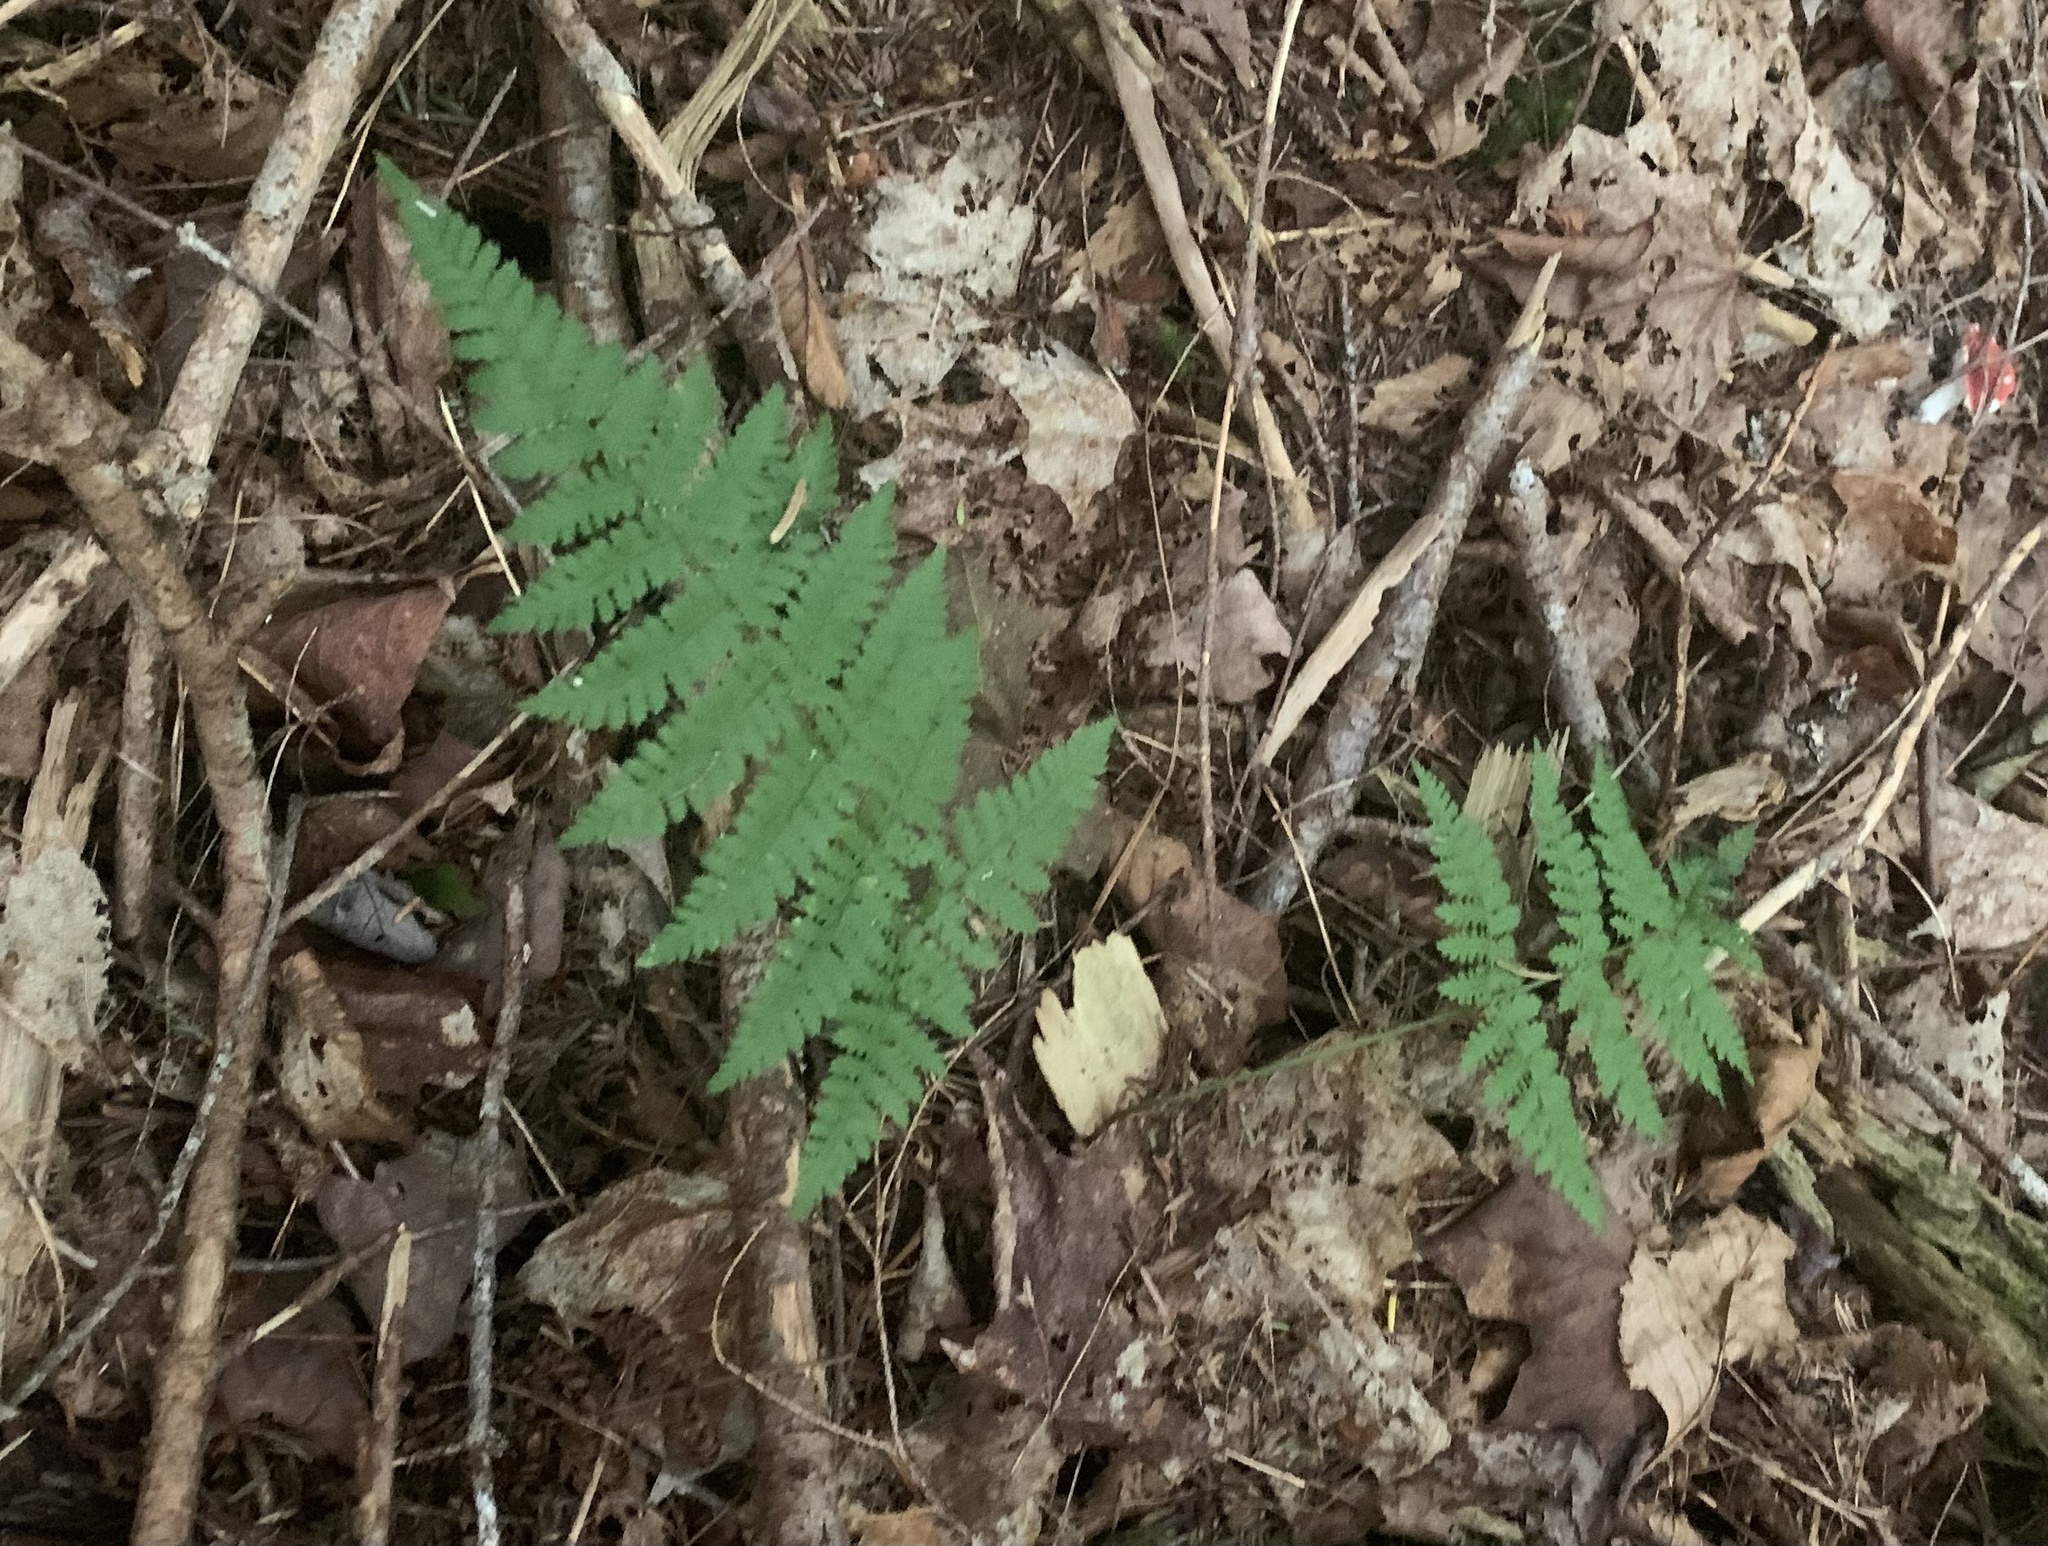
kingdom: Plantae
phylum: Tracheophyta
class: Polypodiopsida
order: Polypodiales
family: Dryopteridaceae
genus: Dryopteris
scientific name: Dryopteris intermedia
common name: Evergreen wood fern
